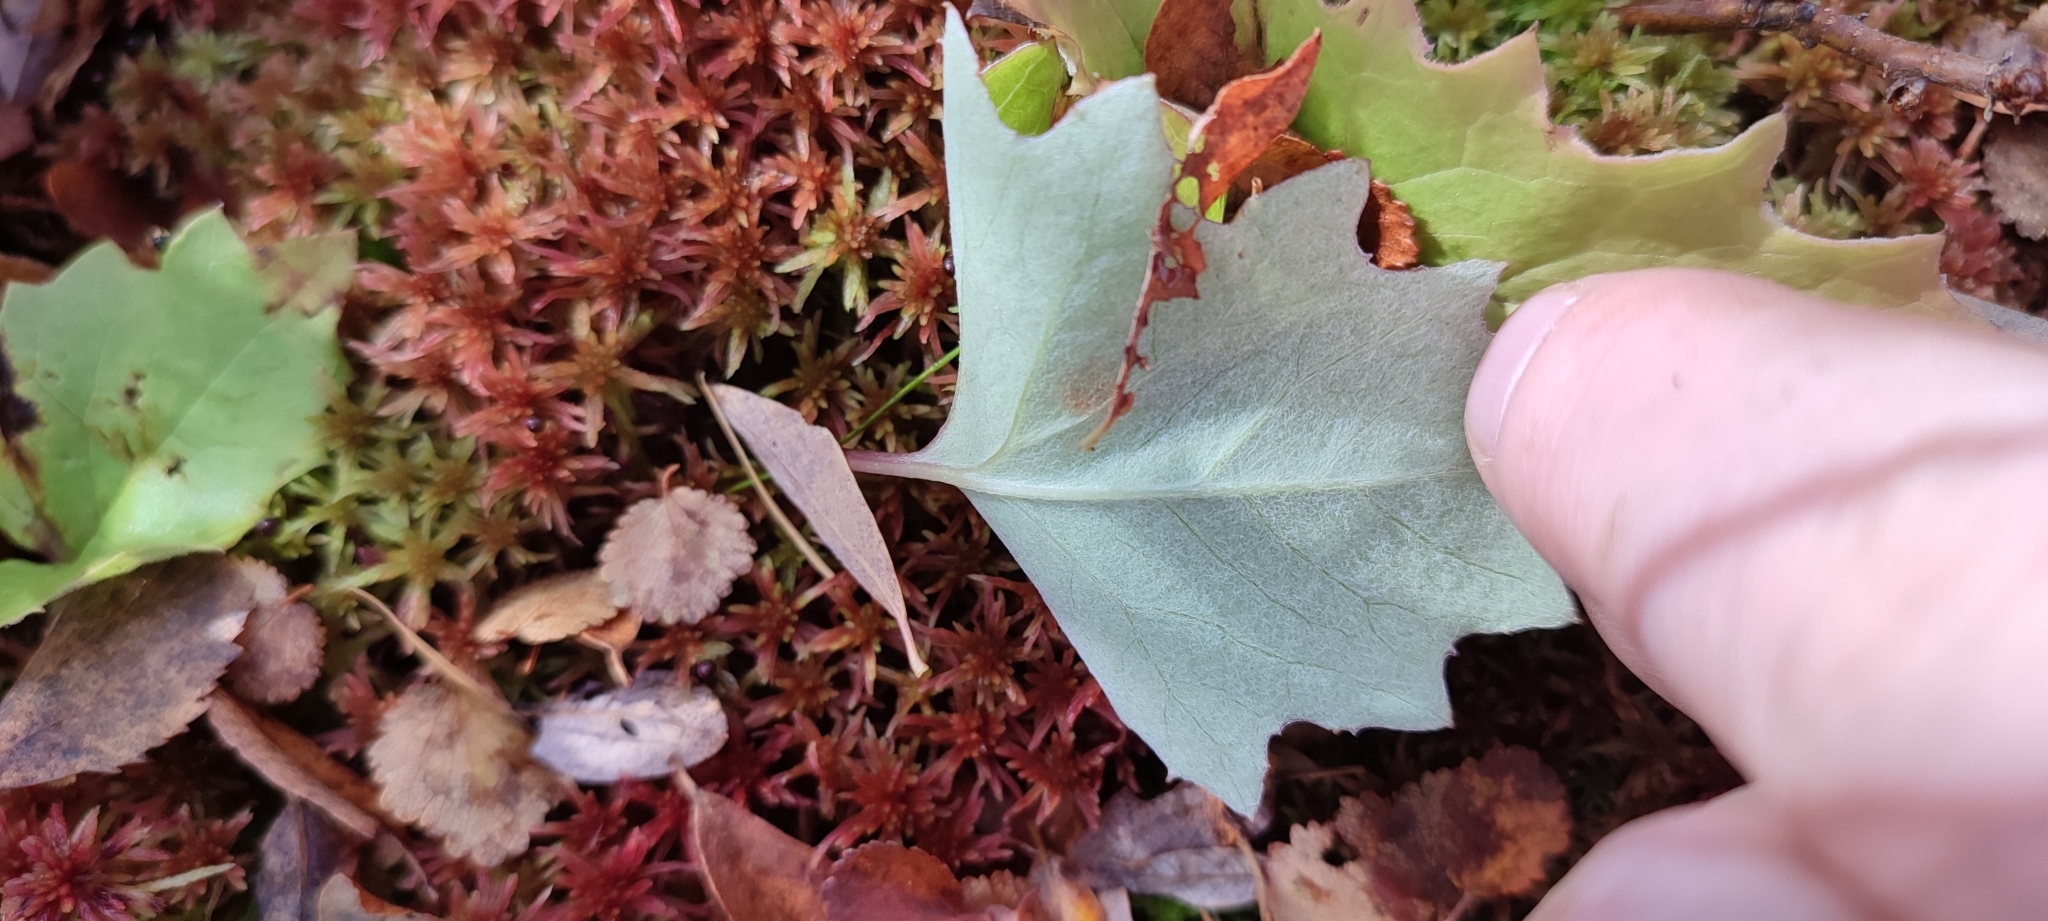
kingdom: Plantae
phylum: Tracheophyta
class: Magnoliopsida
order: Asterales
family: Asteraceae
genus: Petasites
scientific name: Petasites frigidus
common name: Arctic butterbur
